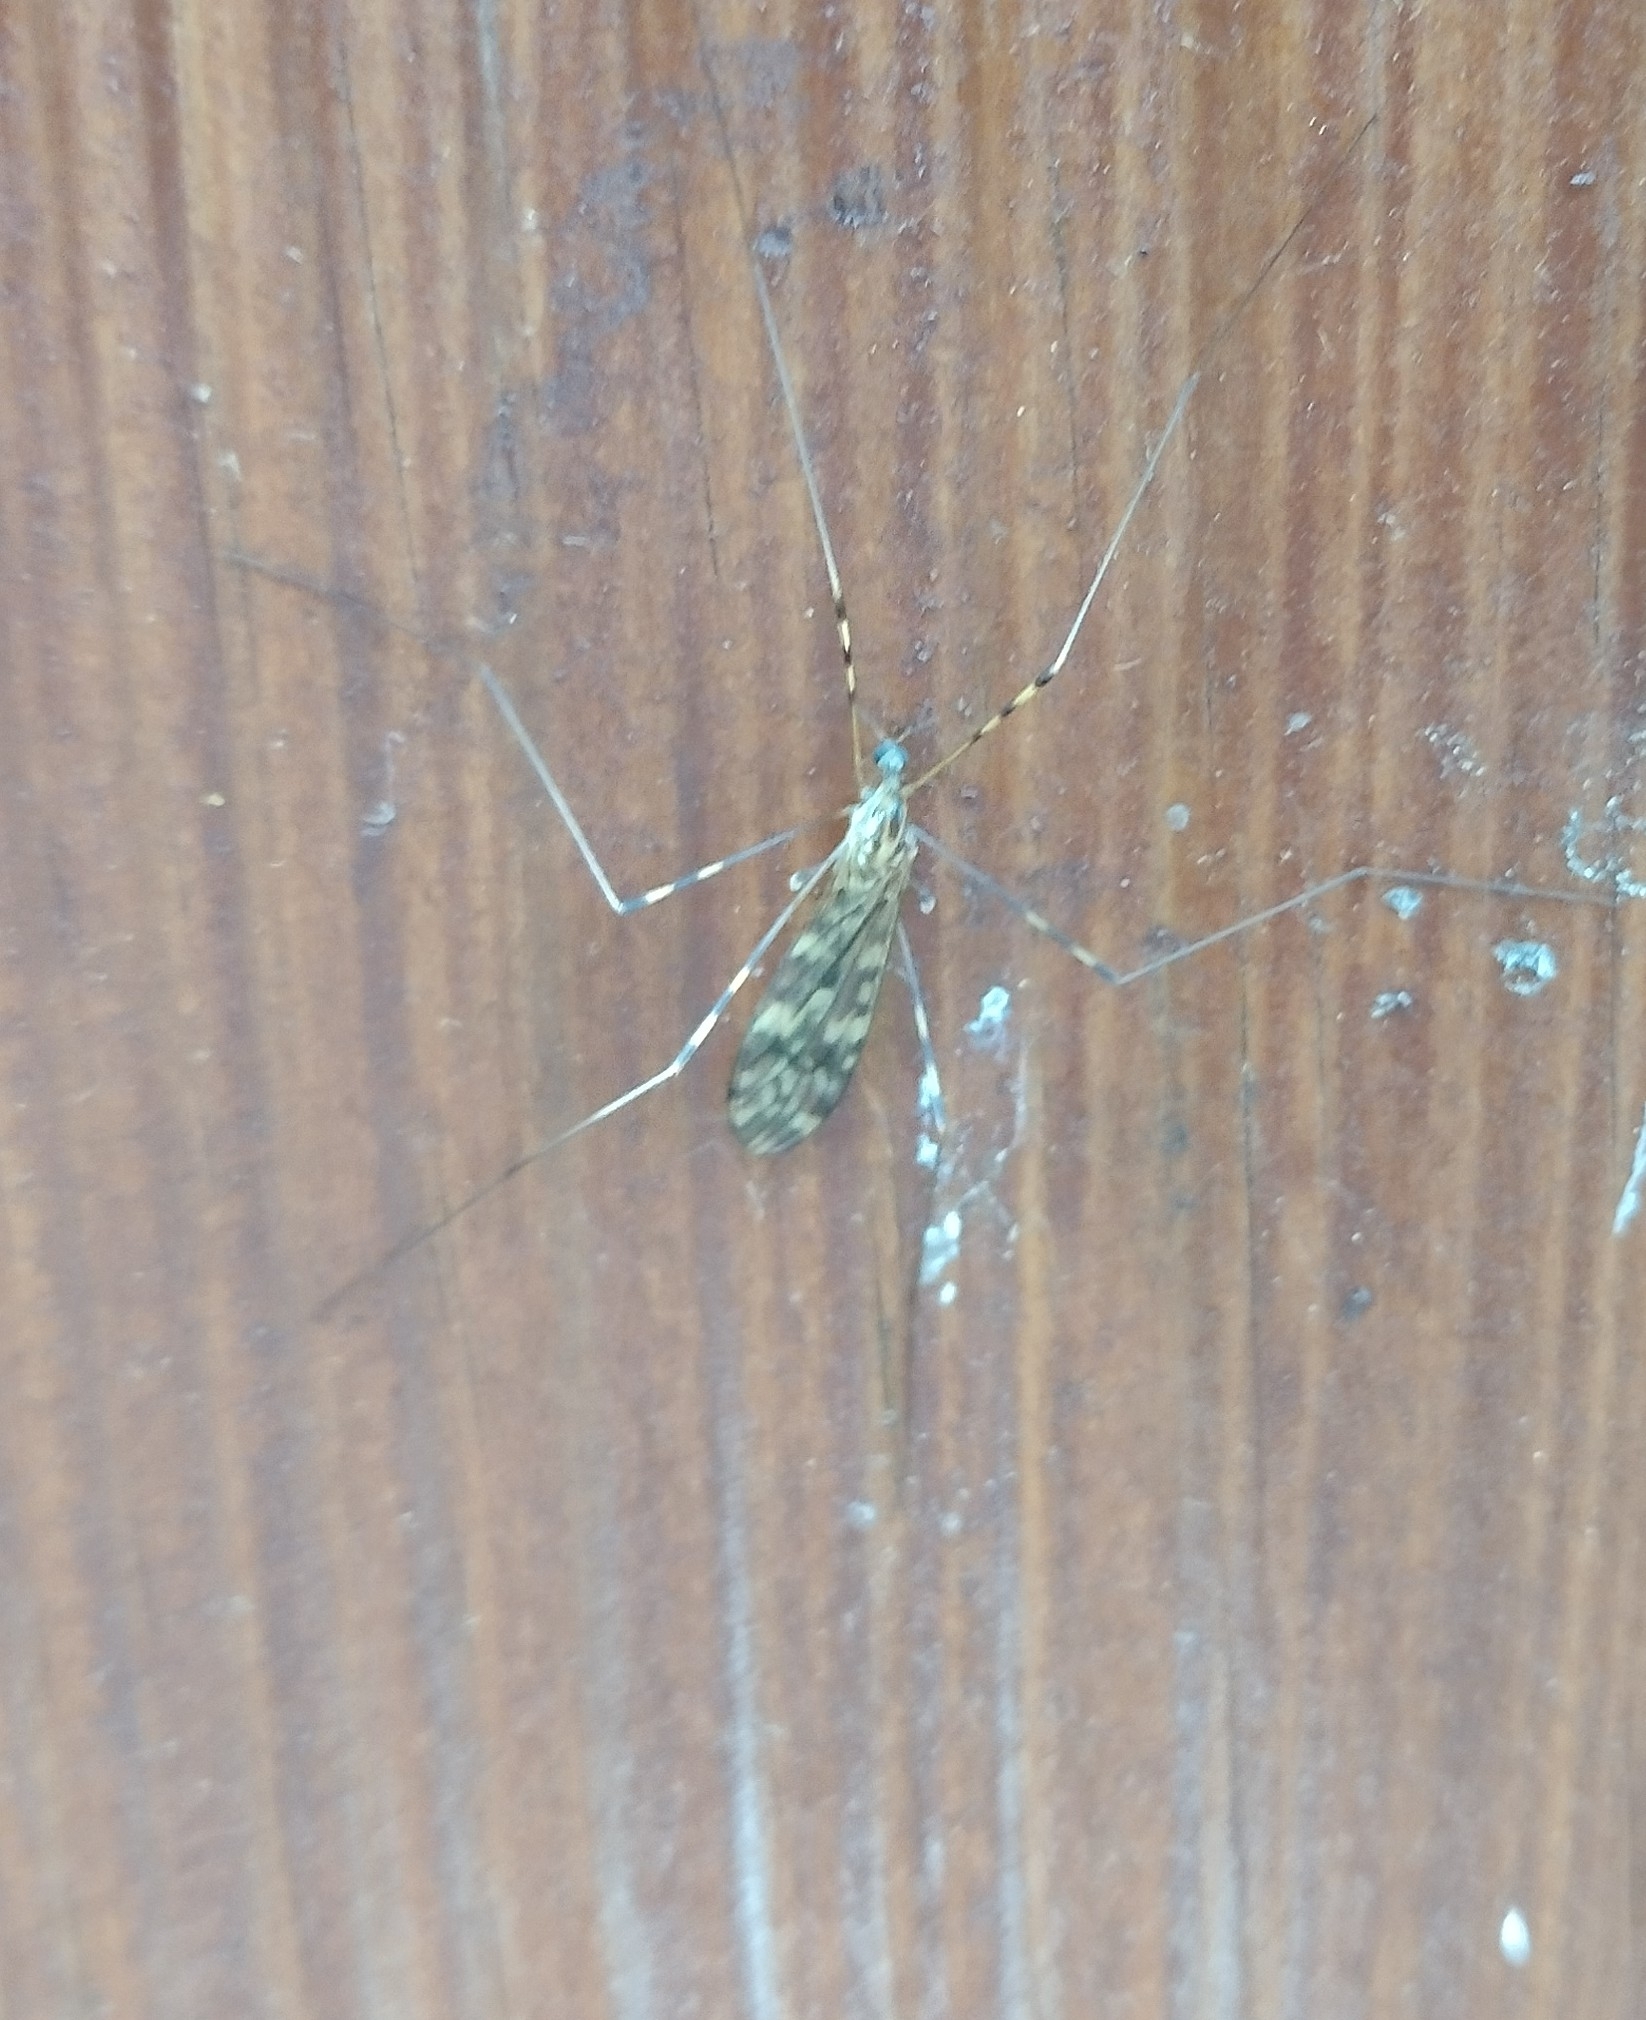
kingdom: Animalia
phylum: Arthropoda
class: Insecta
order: Diptera
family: Limoniidae
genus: Limonia
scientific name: Limonia nubeculosa
